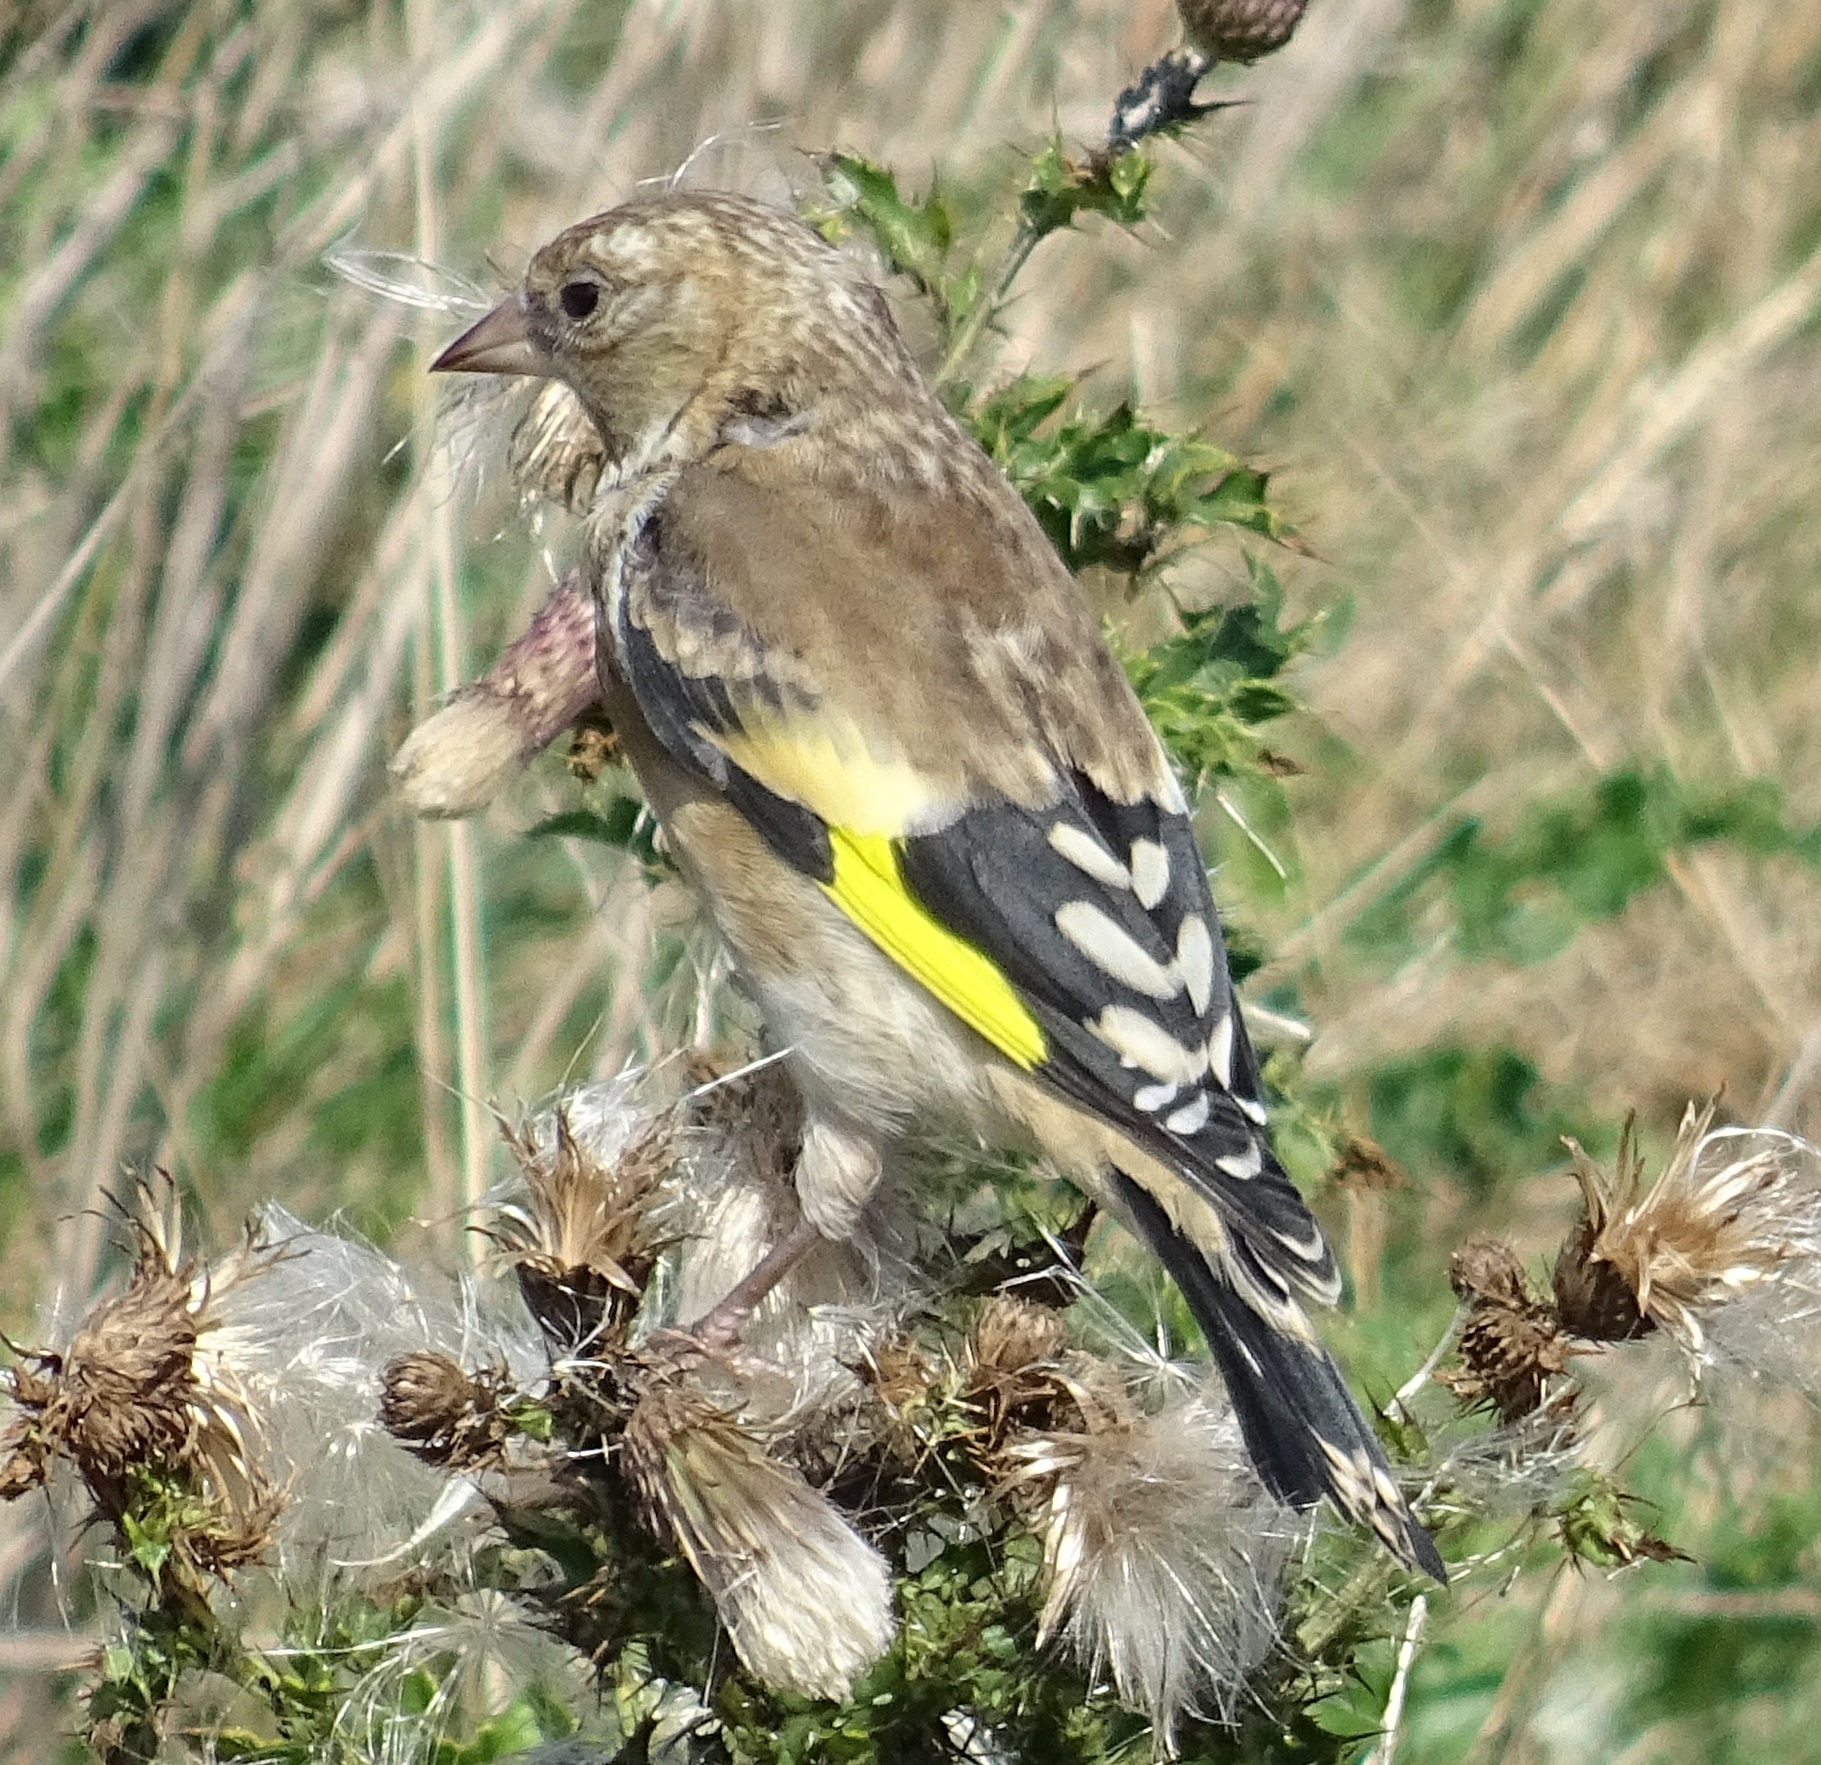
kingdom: Animalia
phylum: Chordata
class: Aves
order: Passeriformes
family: Fringillidae
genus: Carduelis
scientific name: Carduelis carduelis
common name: European goldfinch
